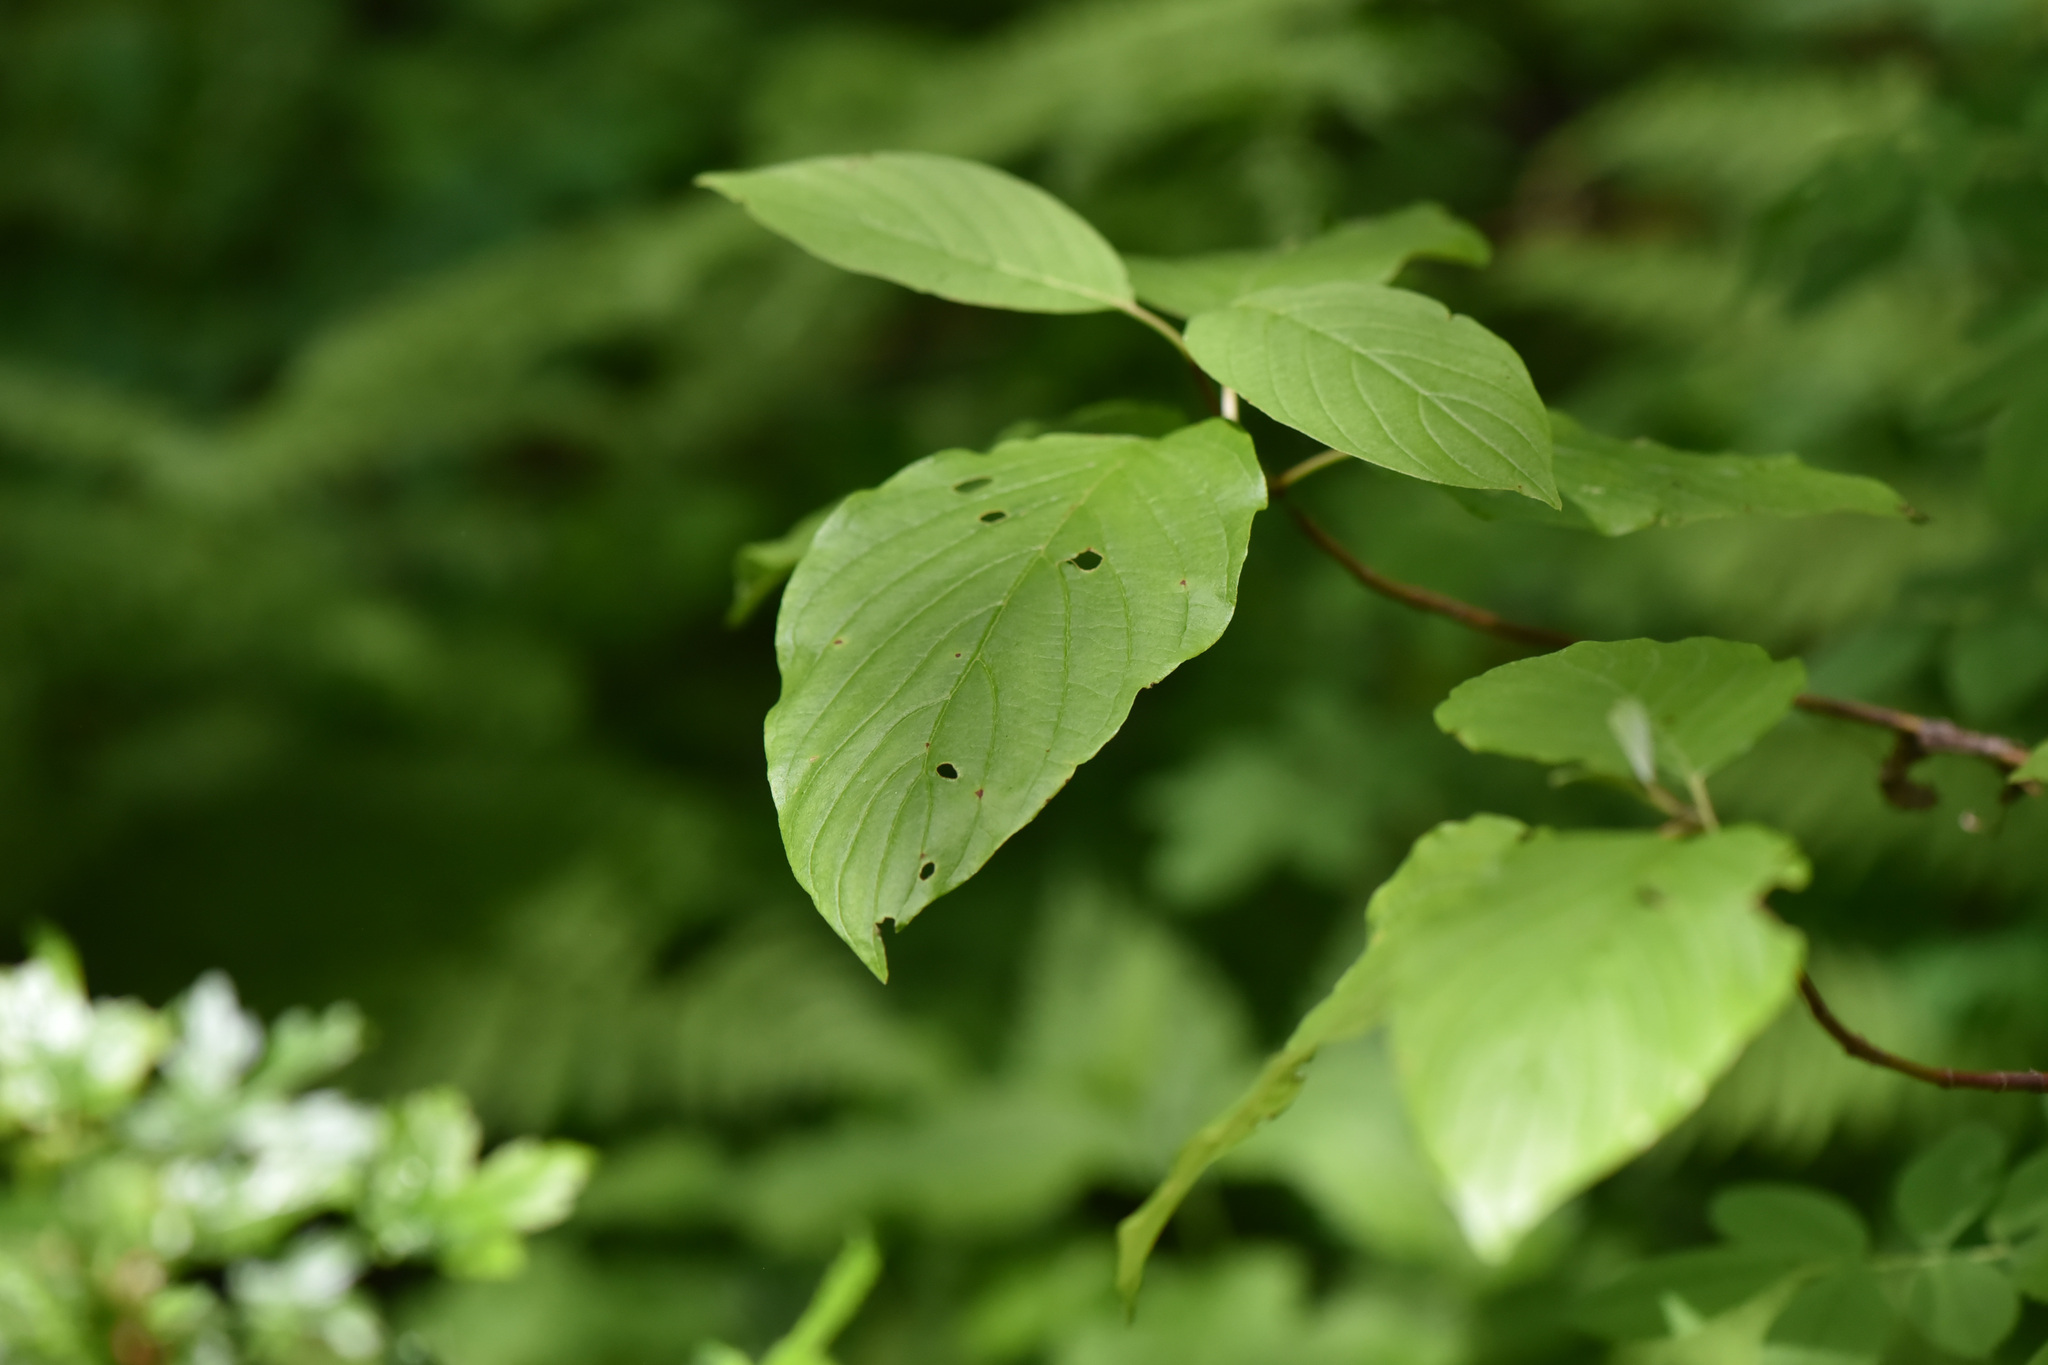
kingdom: Plantae
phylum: Tracheophyta
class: Magnoliopsida
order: Cornales
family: Cornaceae
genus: Cornus
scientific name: Cornus sericea
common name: Red-osier dogwood
